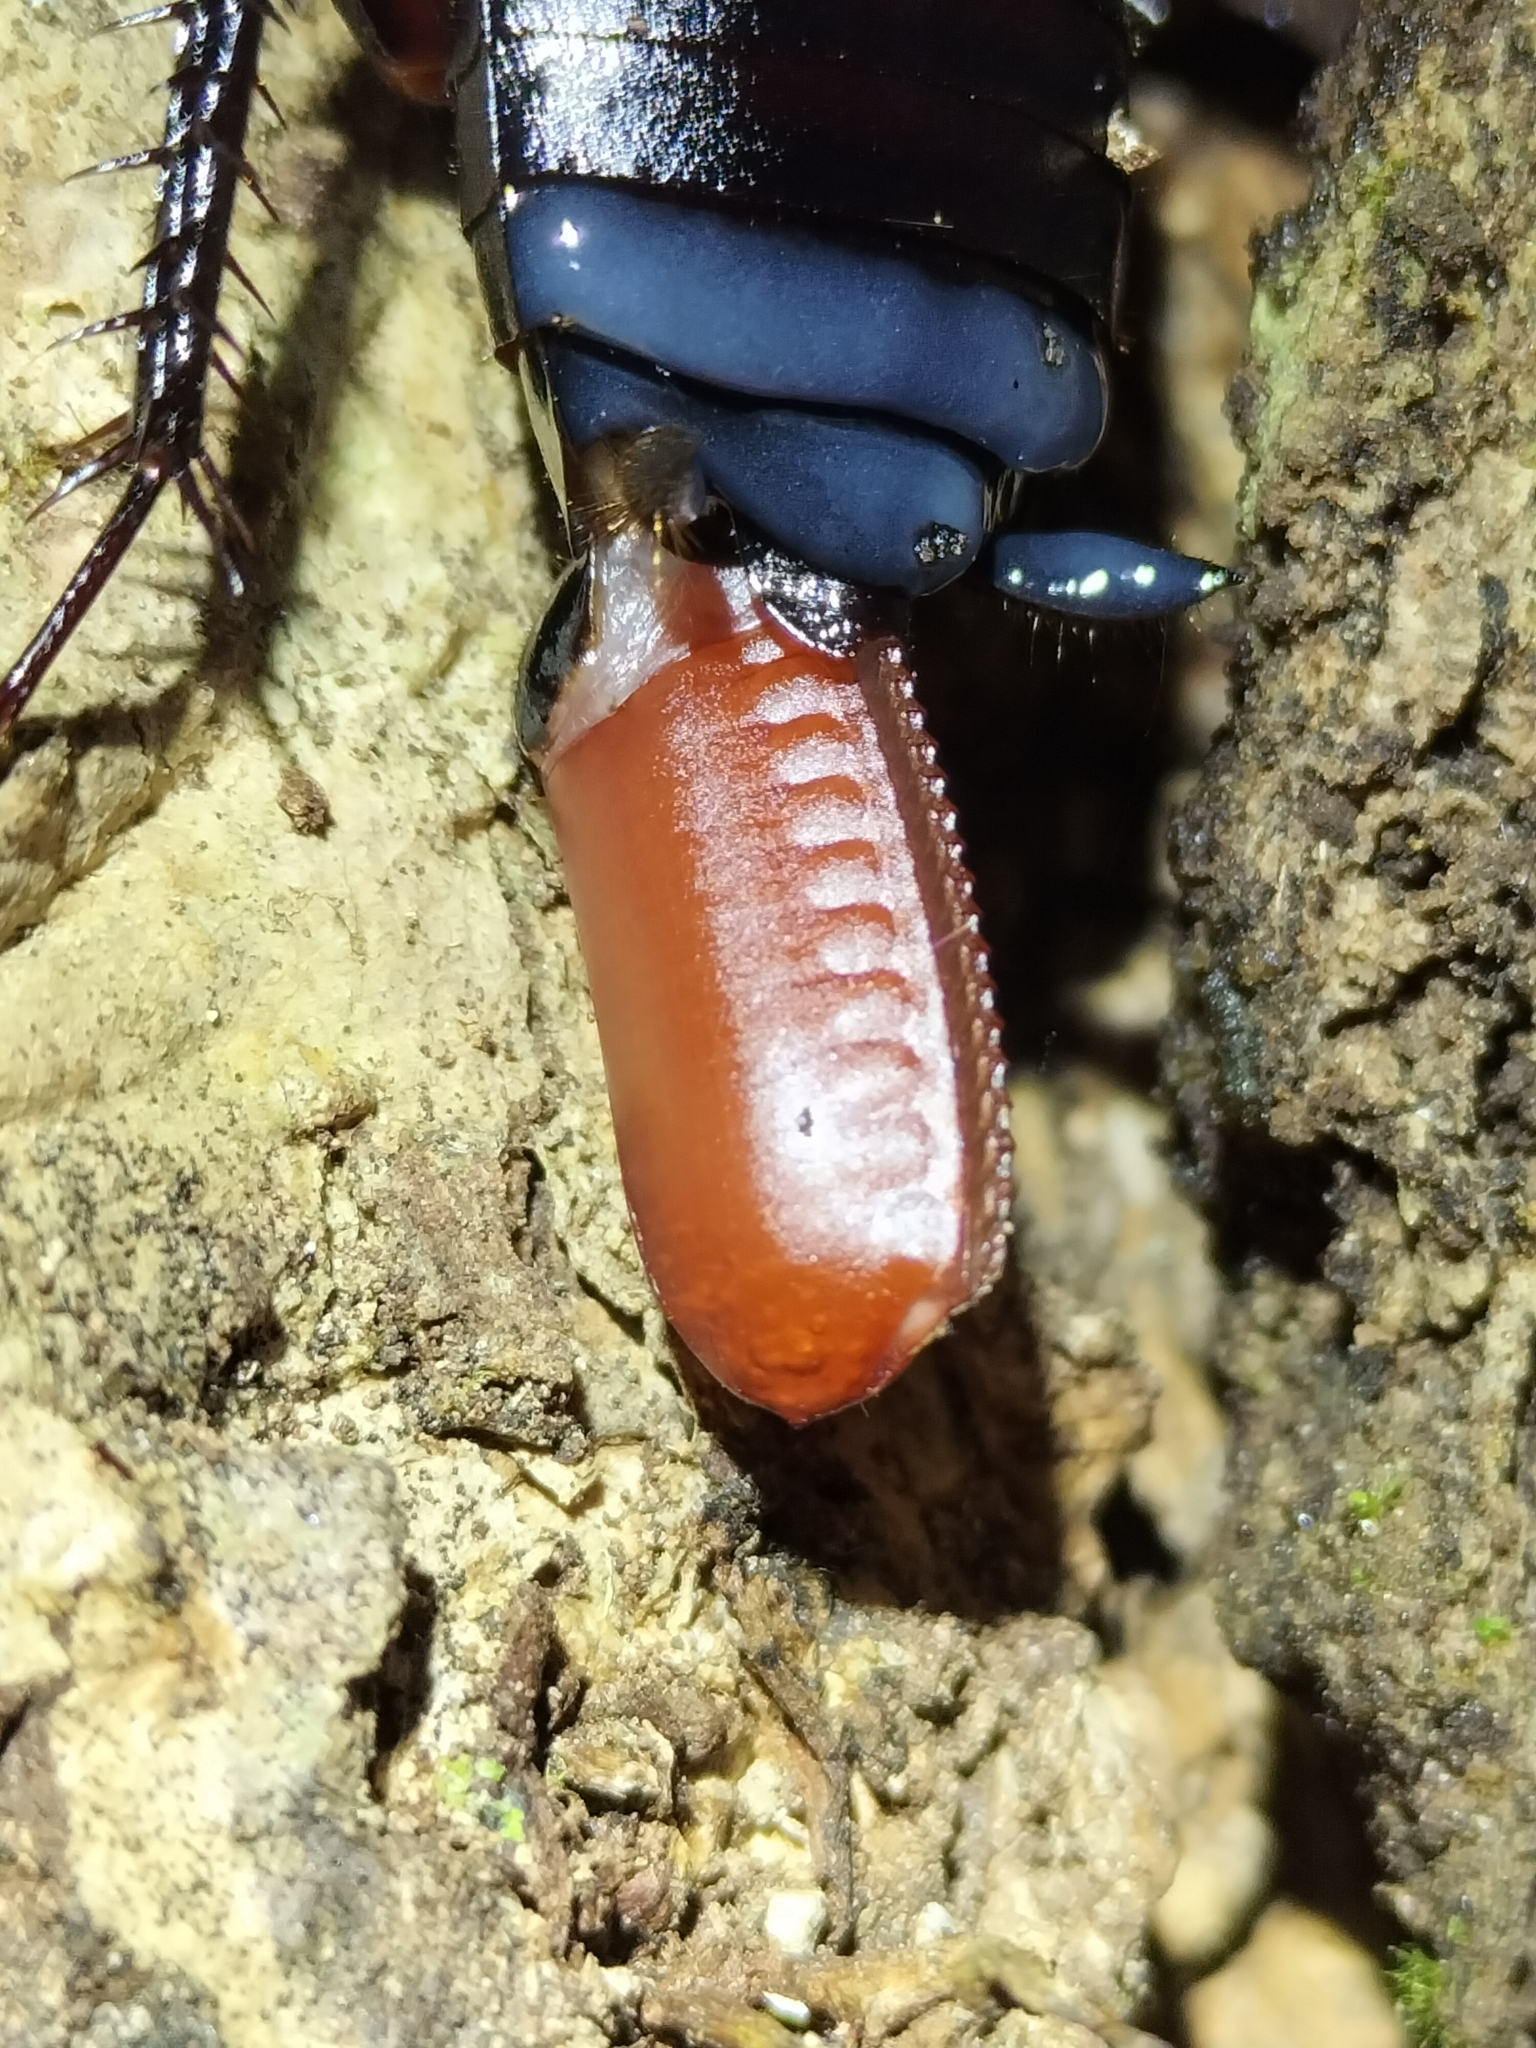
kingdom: Animalia
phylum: Arthropoda
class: Insecta
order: Blattodea
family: Blattidae
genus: Celatoblatta
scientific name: Celatoblatta
